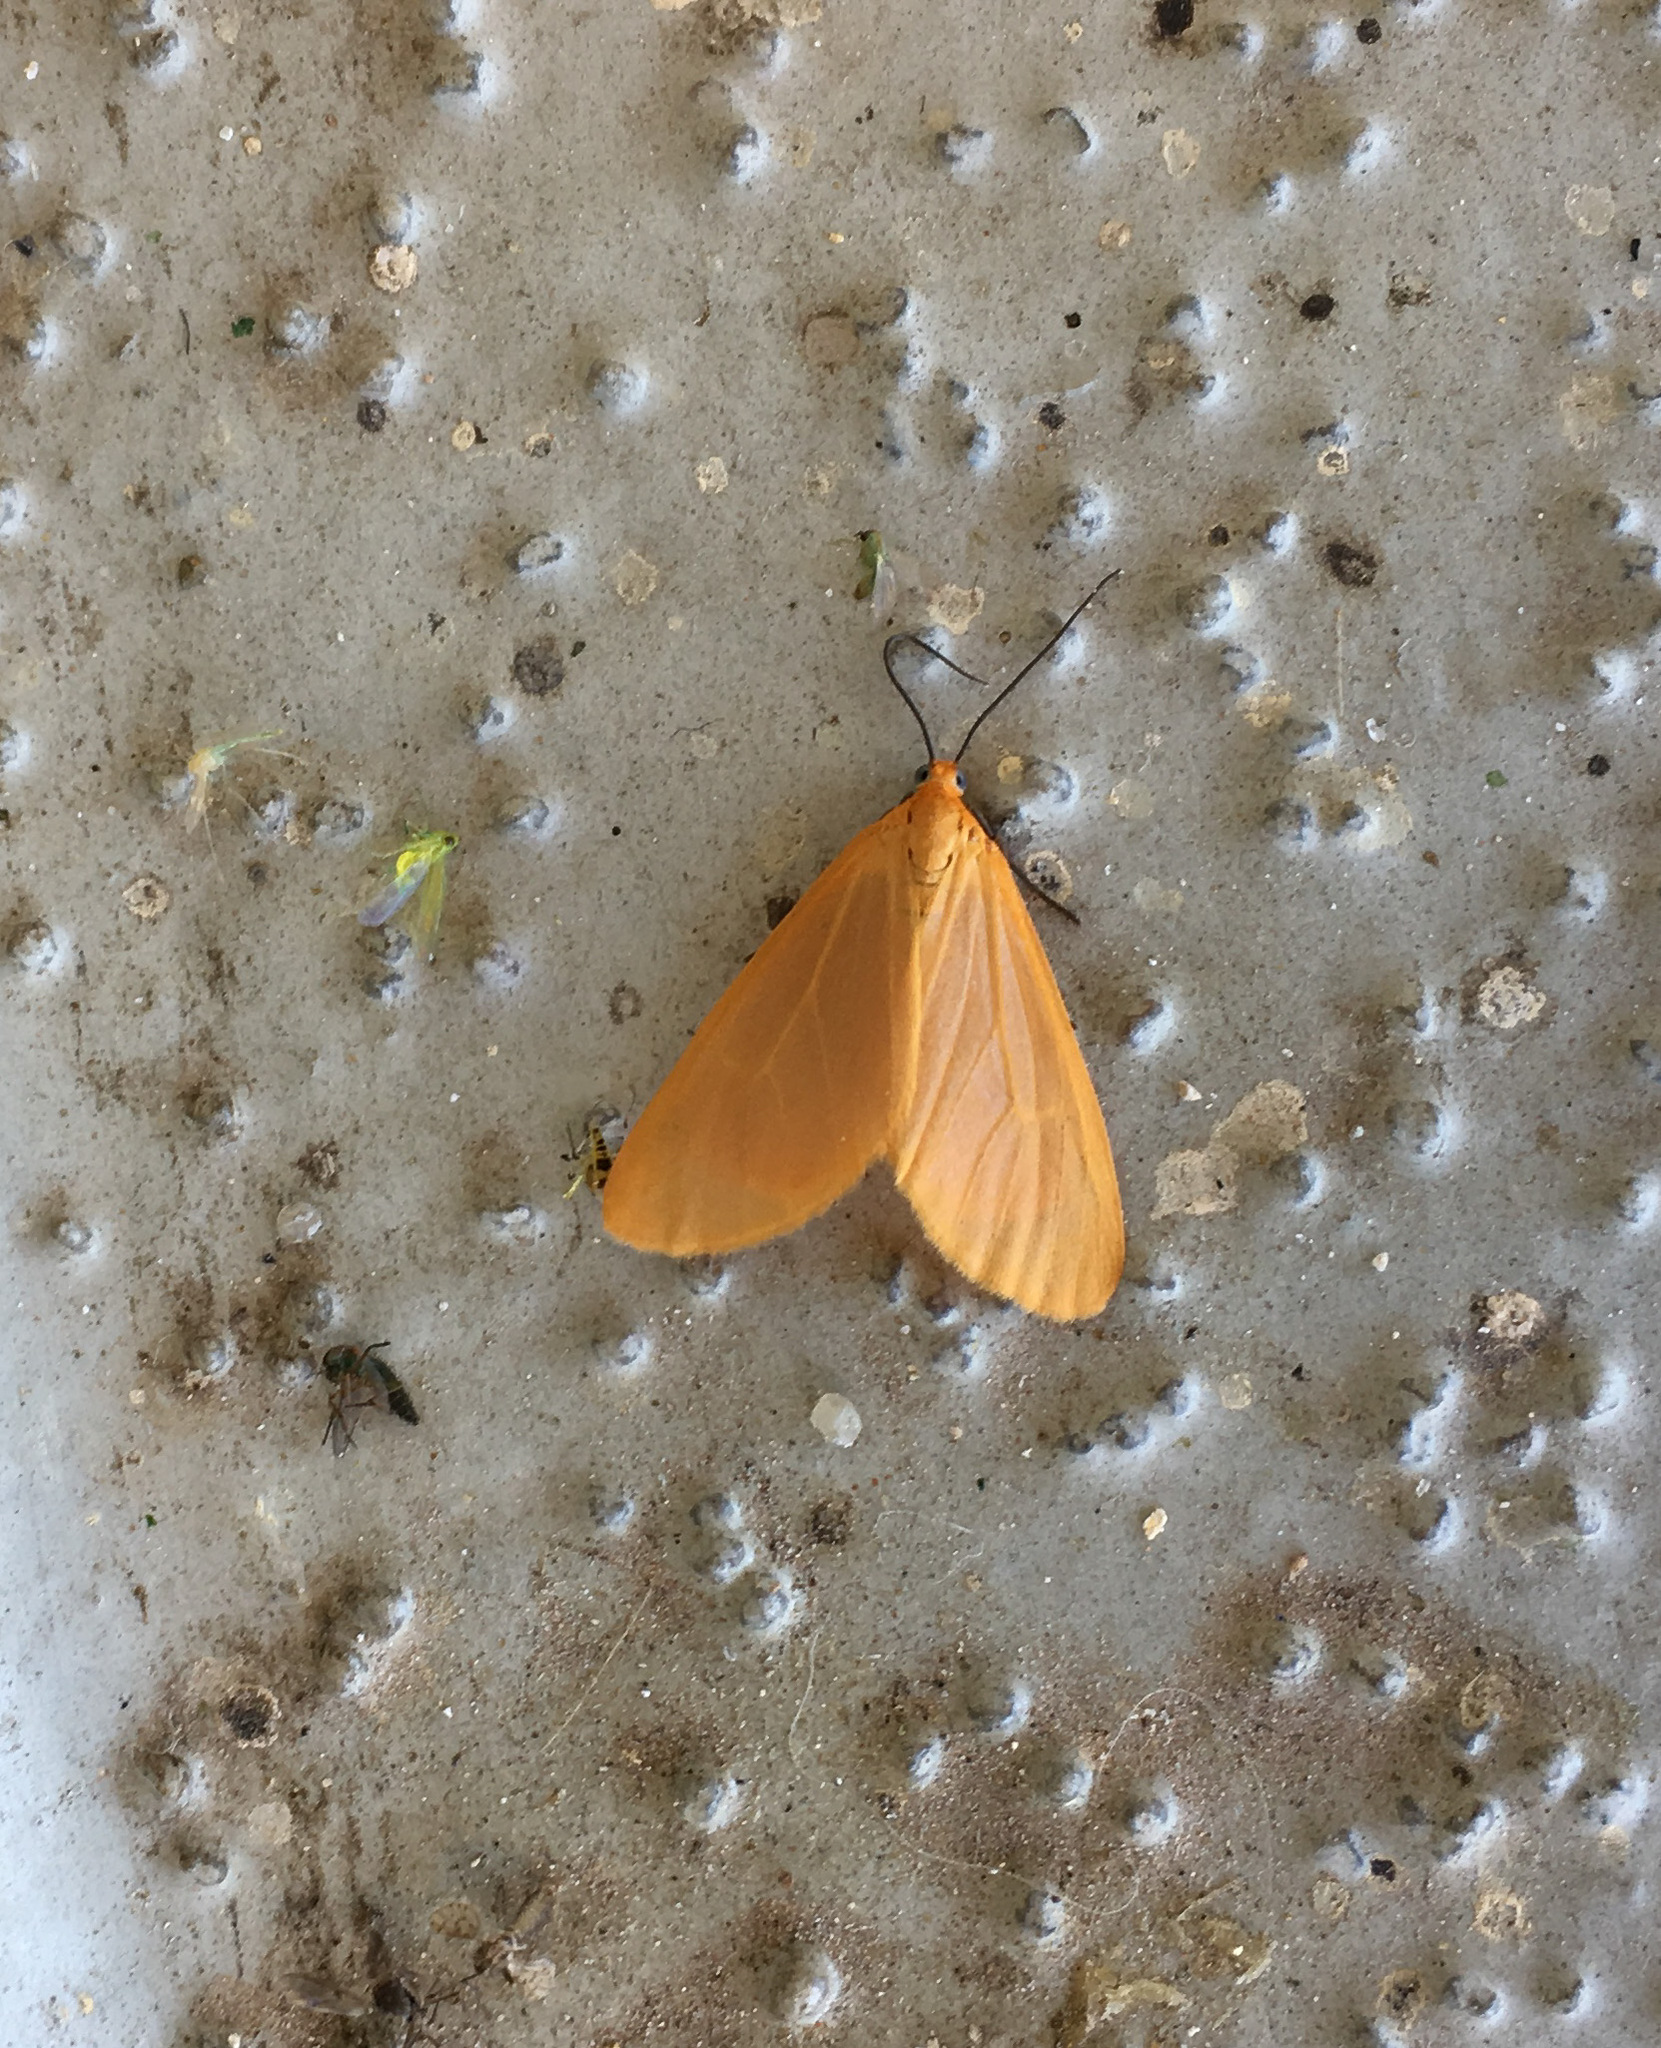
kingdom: Animalia
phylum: Arthropoda
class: Insecta
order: Lepidoptera
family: Geometridae
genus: Eubaphe
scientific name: Eubaphe unicolor
